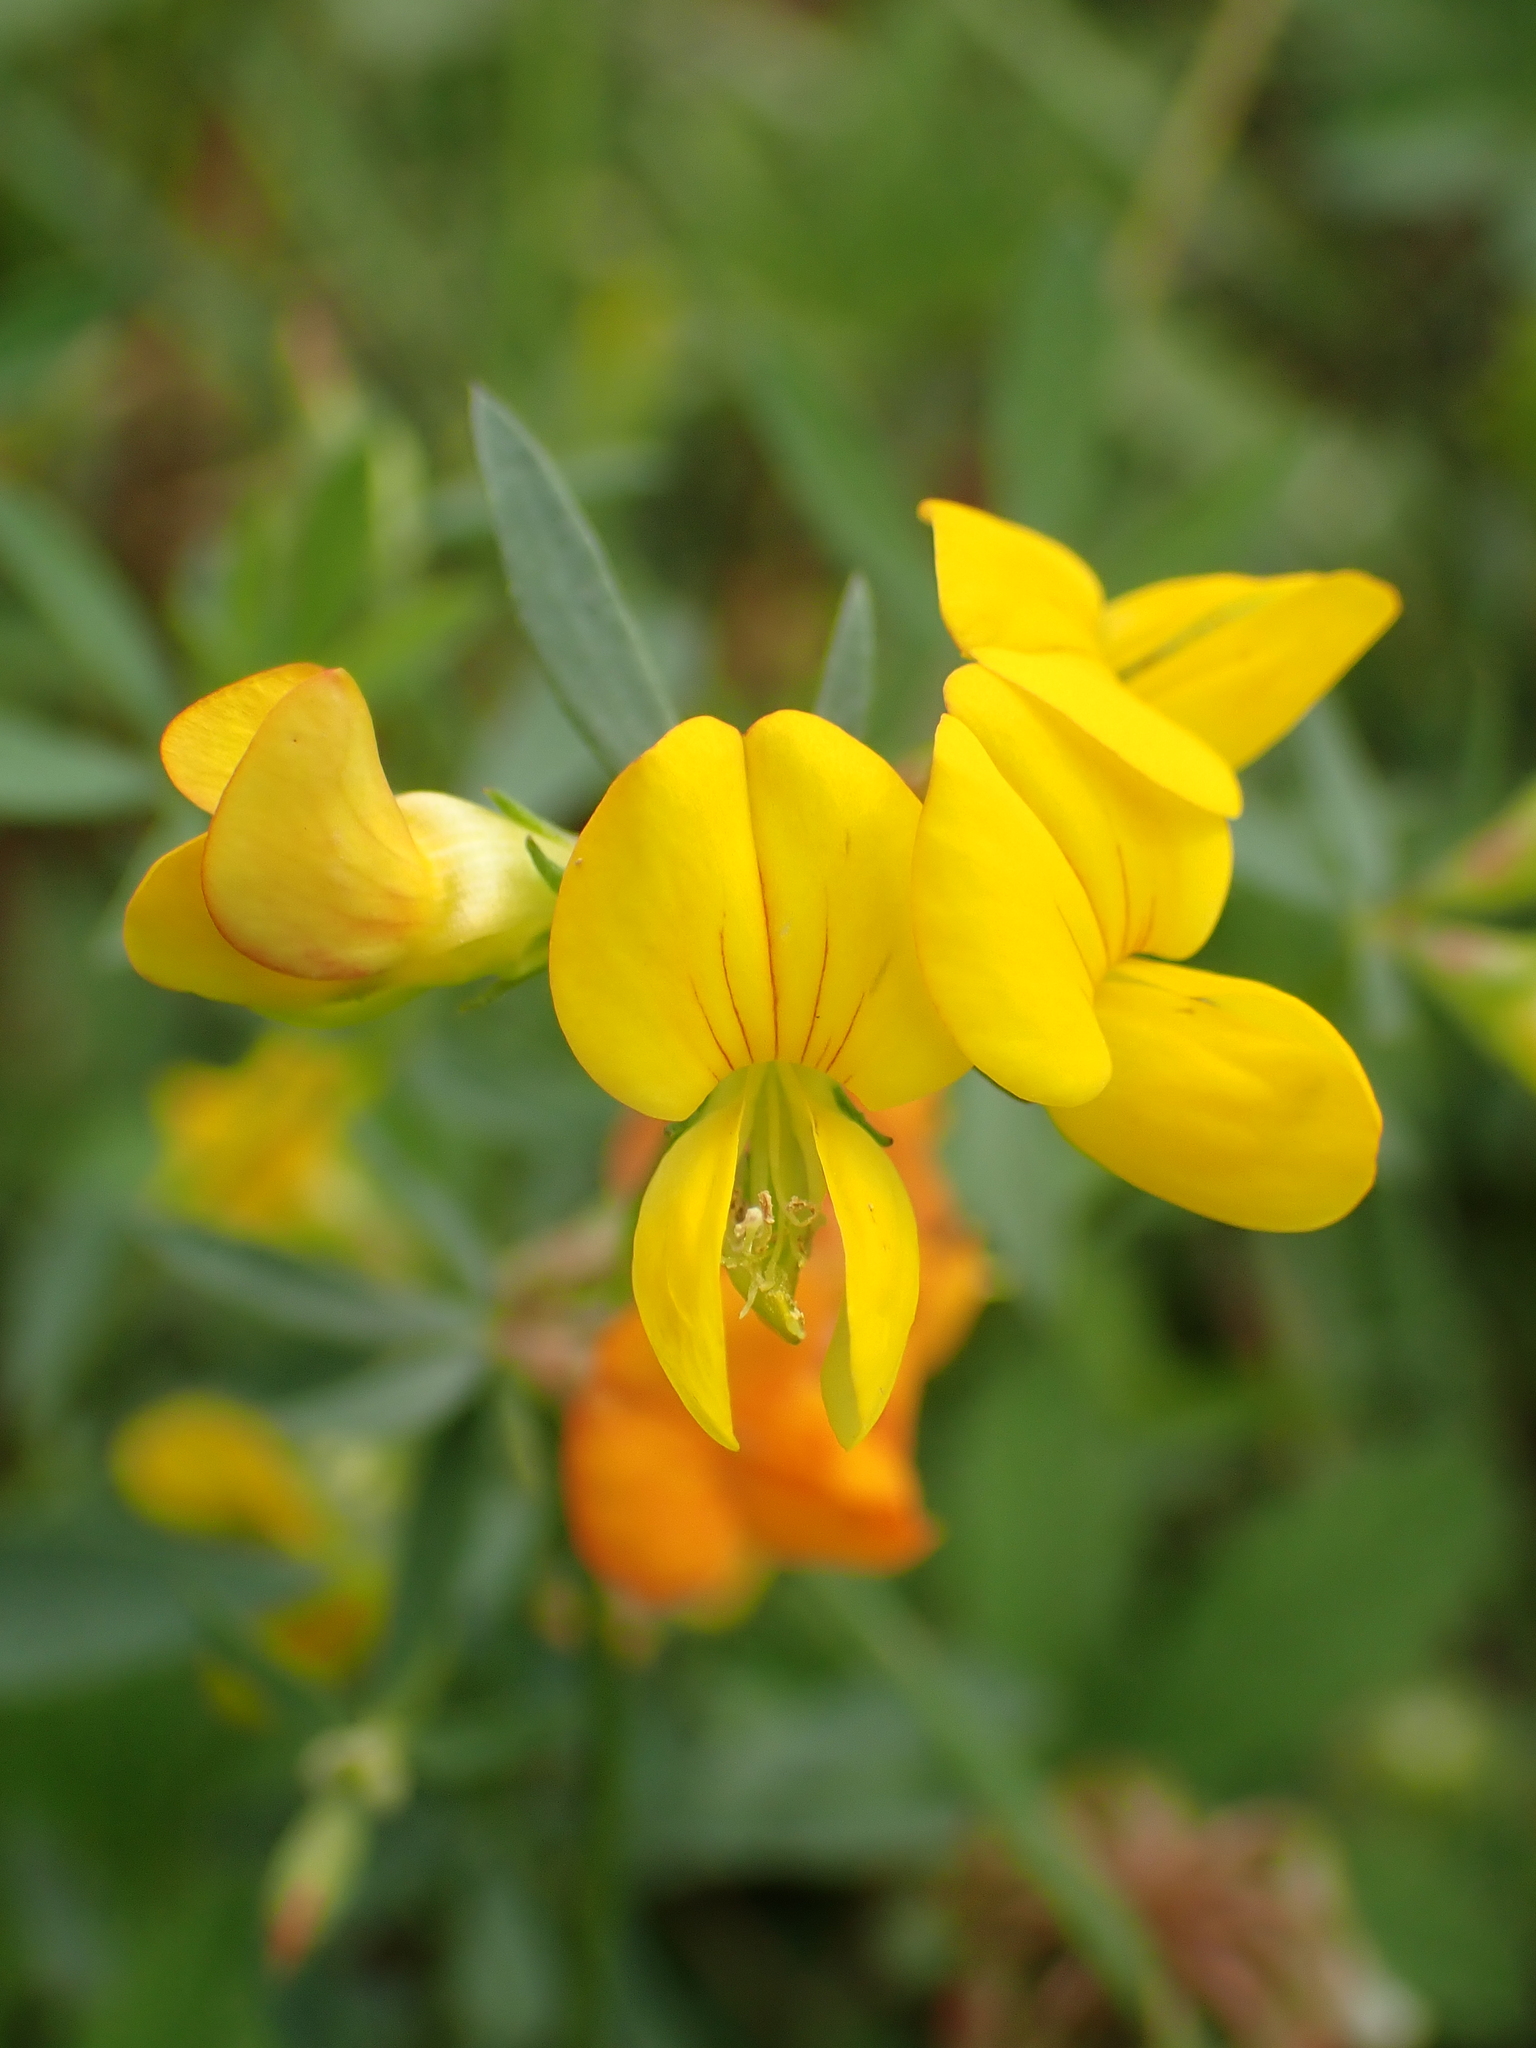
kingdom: Plantae
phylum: Tracheophyta
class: Magnoliopsida
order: Fabales
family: Fabaceae
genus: Lotus
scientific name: Lotus tenuis
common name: Narrow-leaved bird's-foot-trefoil
